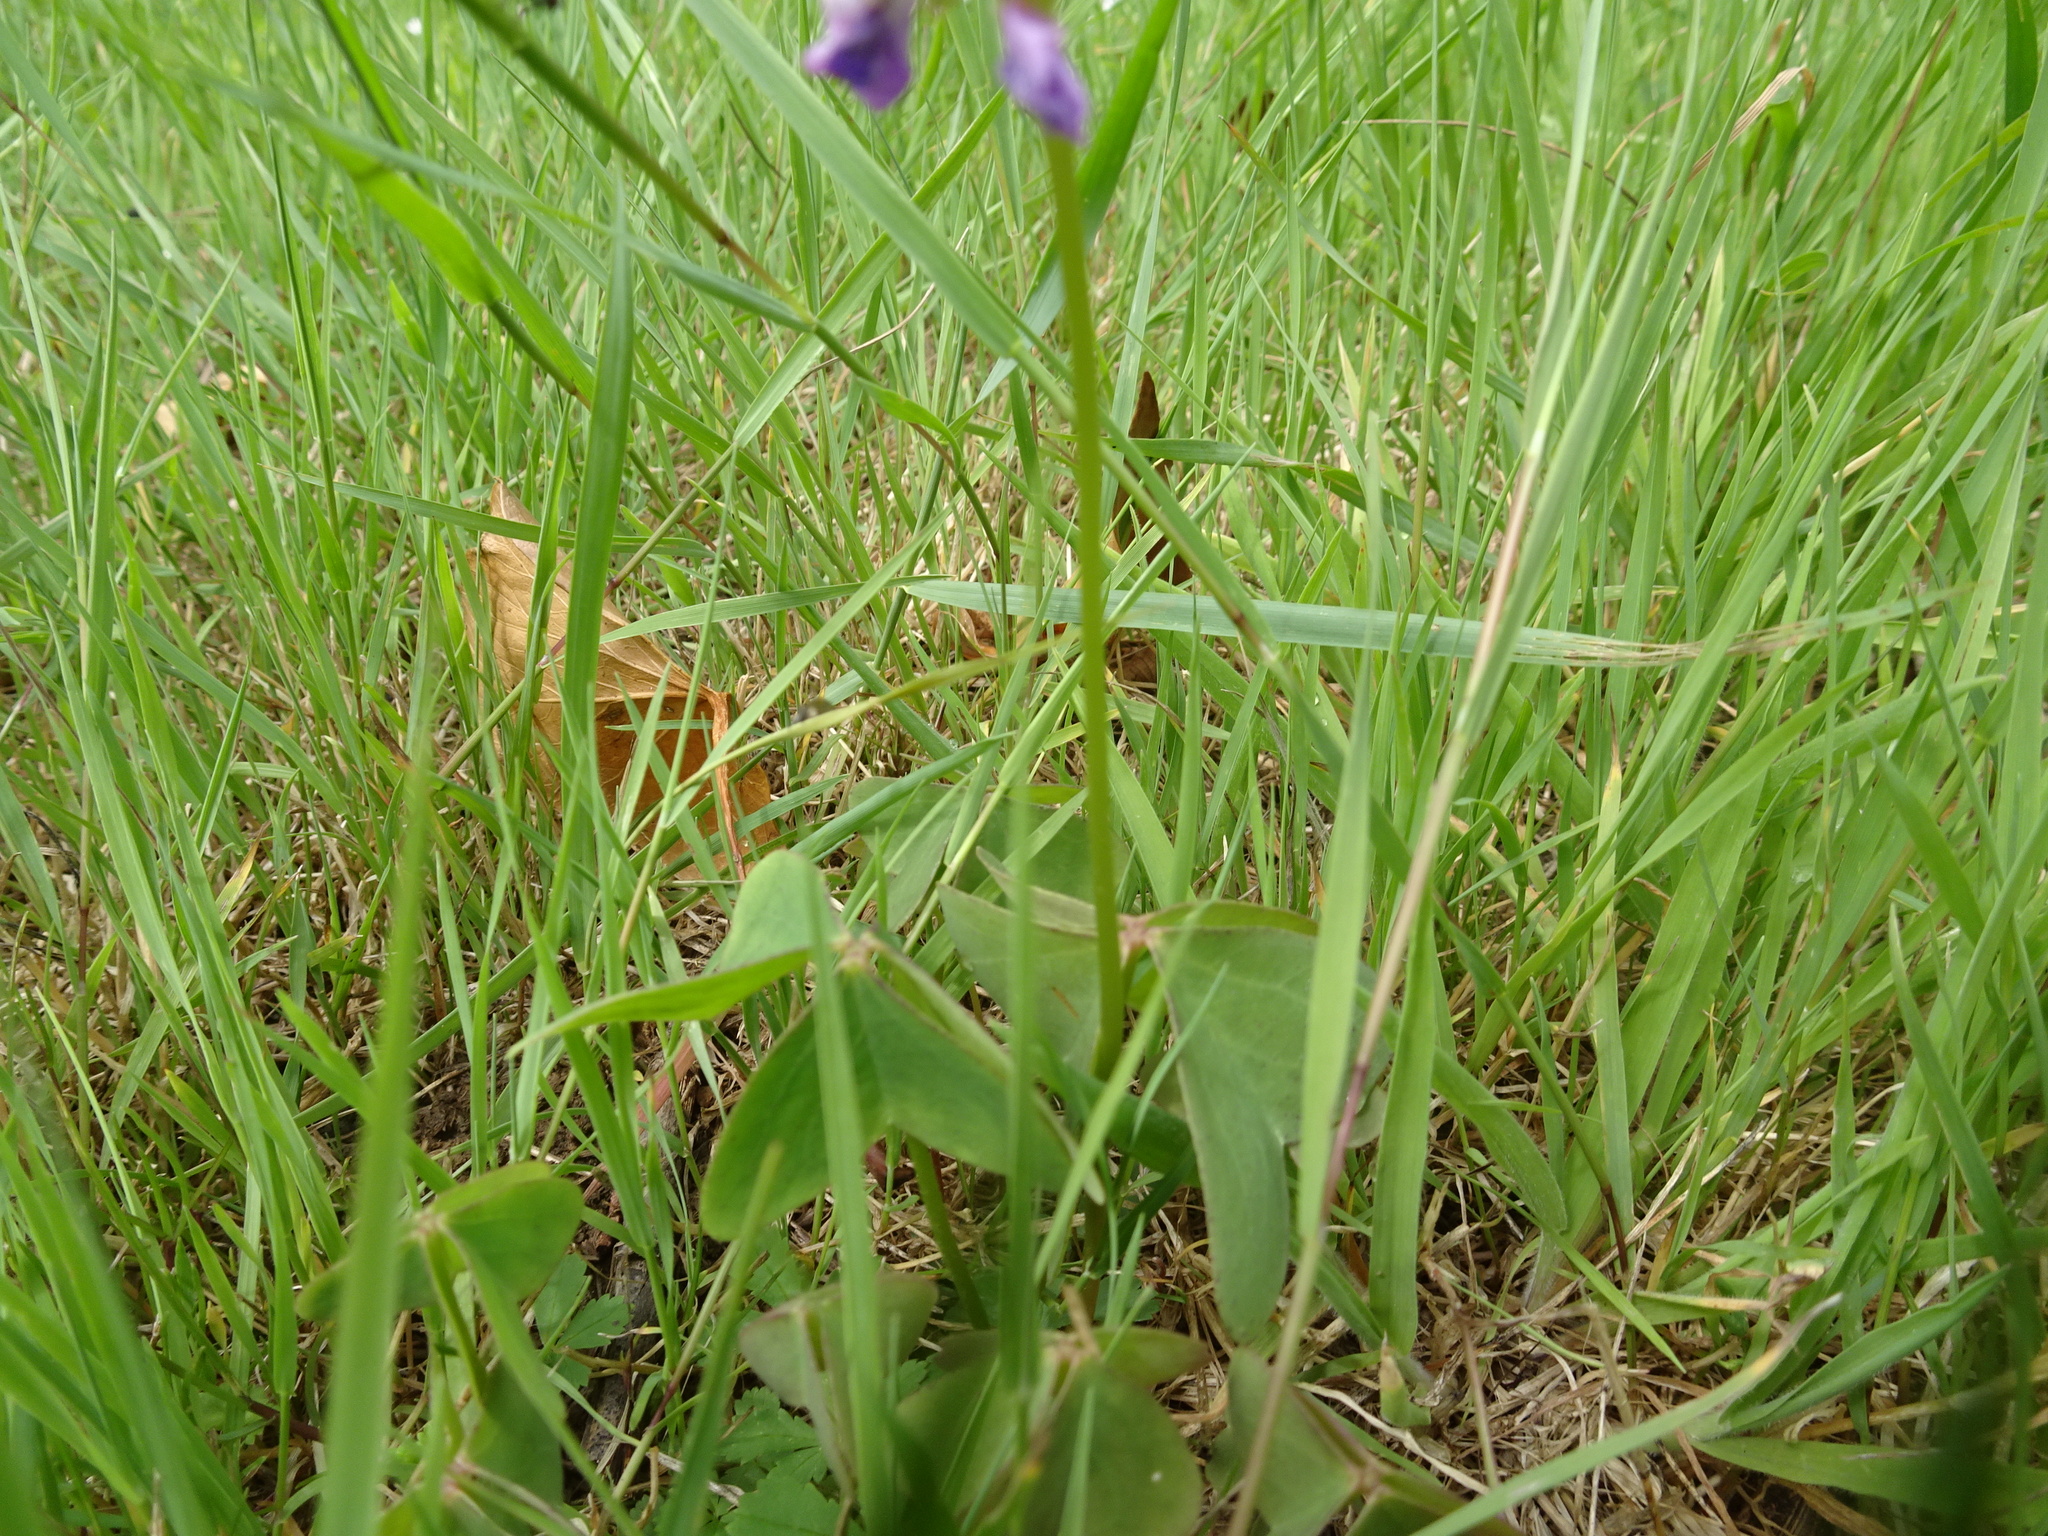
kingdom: Plantae
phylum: Tracheophyta
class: Magnoliopsida
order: Oxalidales
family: Oxalidaceae
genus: Oxalis
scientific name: Oxalis latifolia
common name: Garden pink-sorrel
